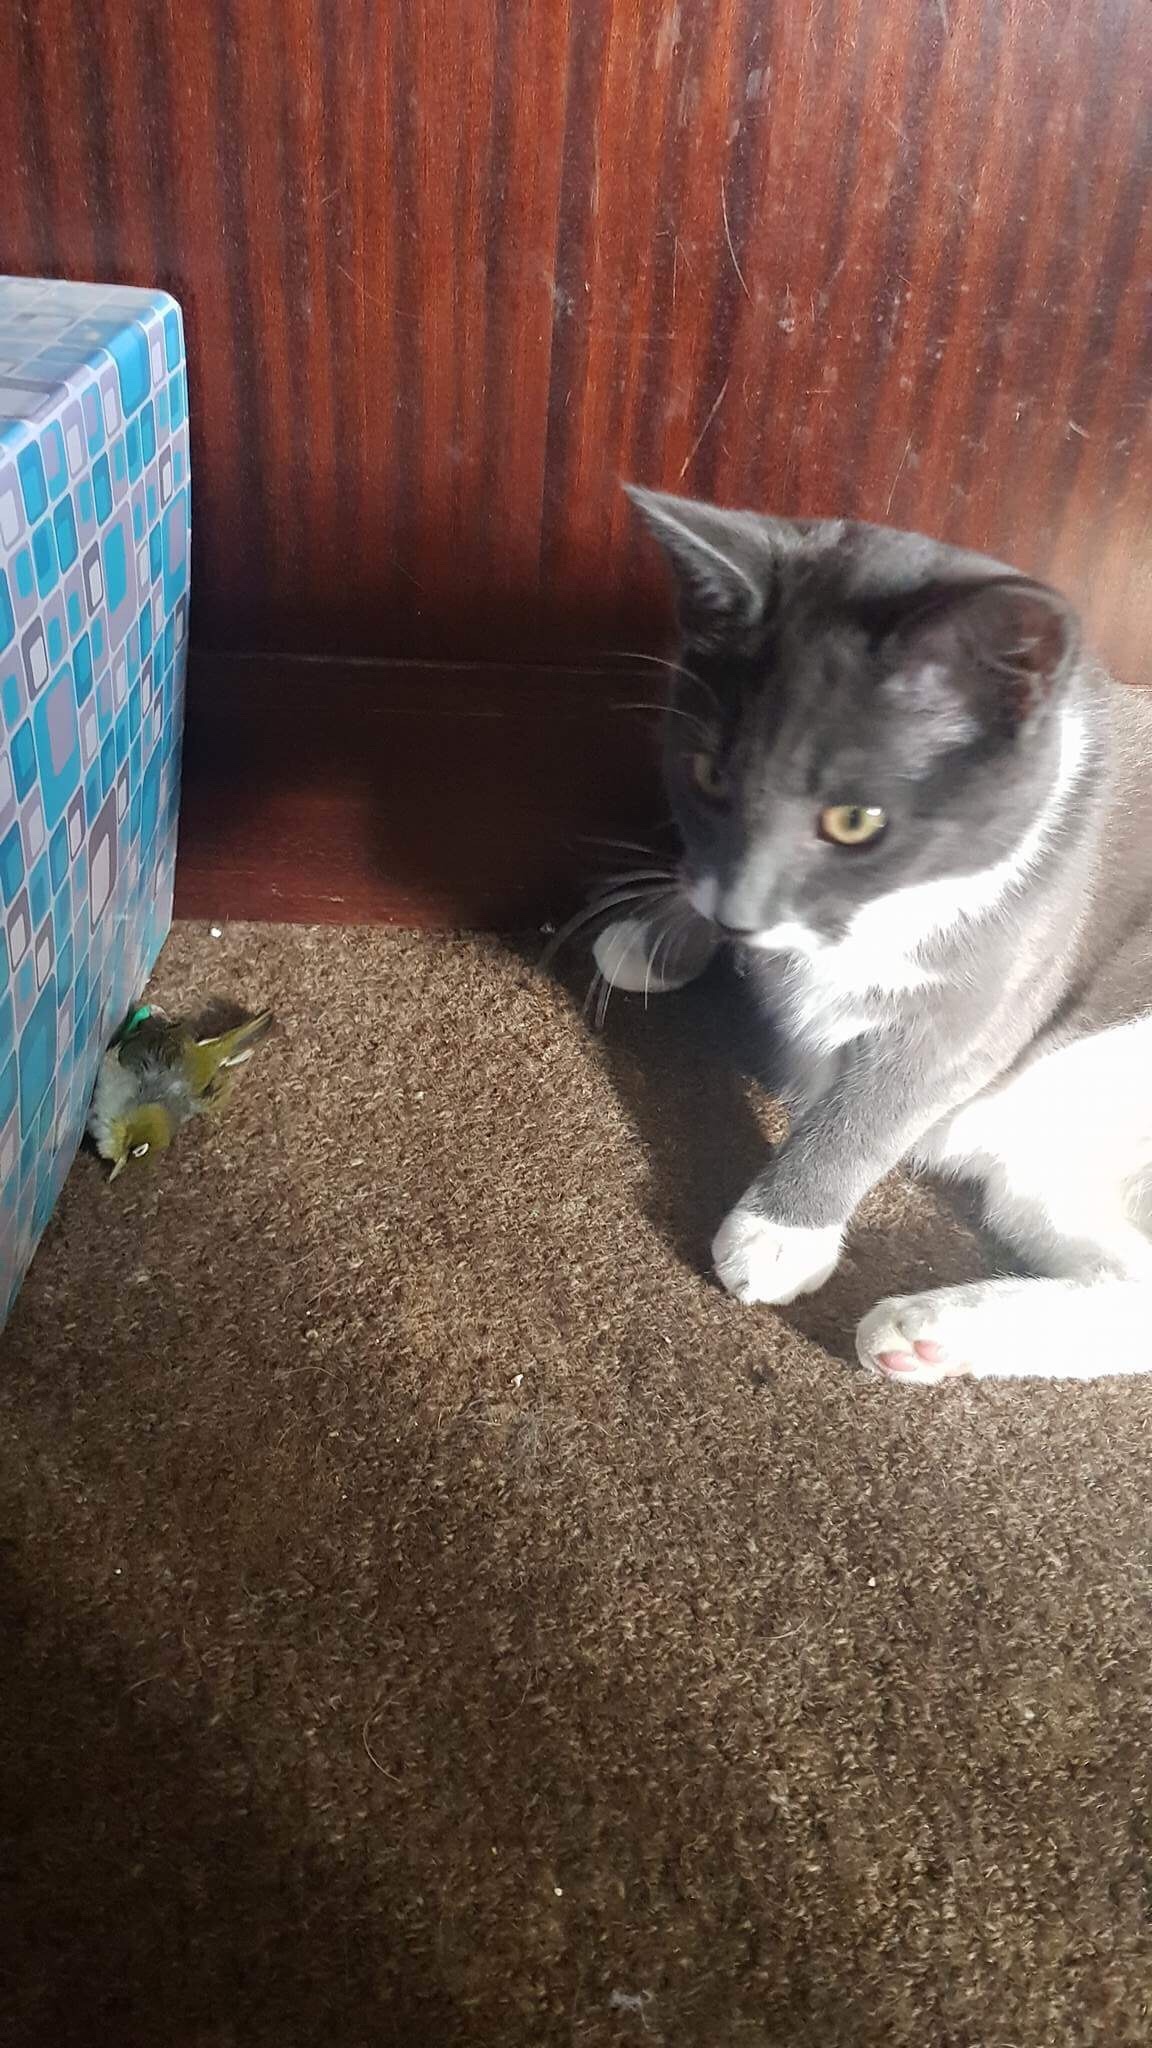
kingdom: Animalia
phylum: Chordata
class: Aves
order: Passeriformes
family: Zosteropidae
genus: Zosterops
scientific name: Zosterops lateralis
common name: Silvereye
